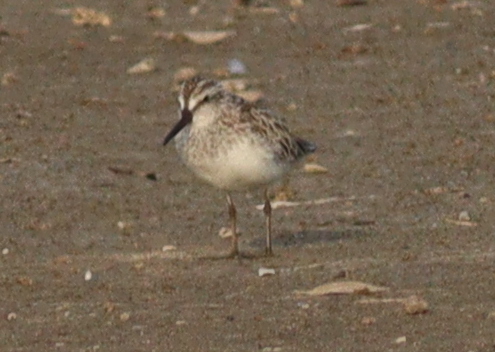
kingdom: Animalia
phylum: Chordata
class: Aves
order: Charadriiformes
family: Scolopacidae
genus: Calidris
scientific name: Calidris falcinellus
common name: Broad-billed sandpiper
